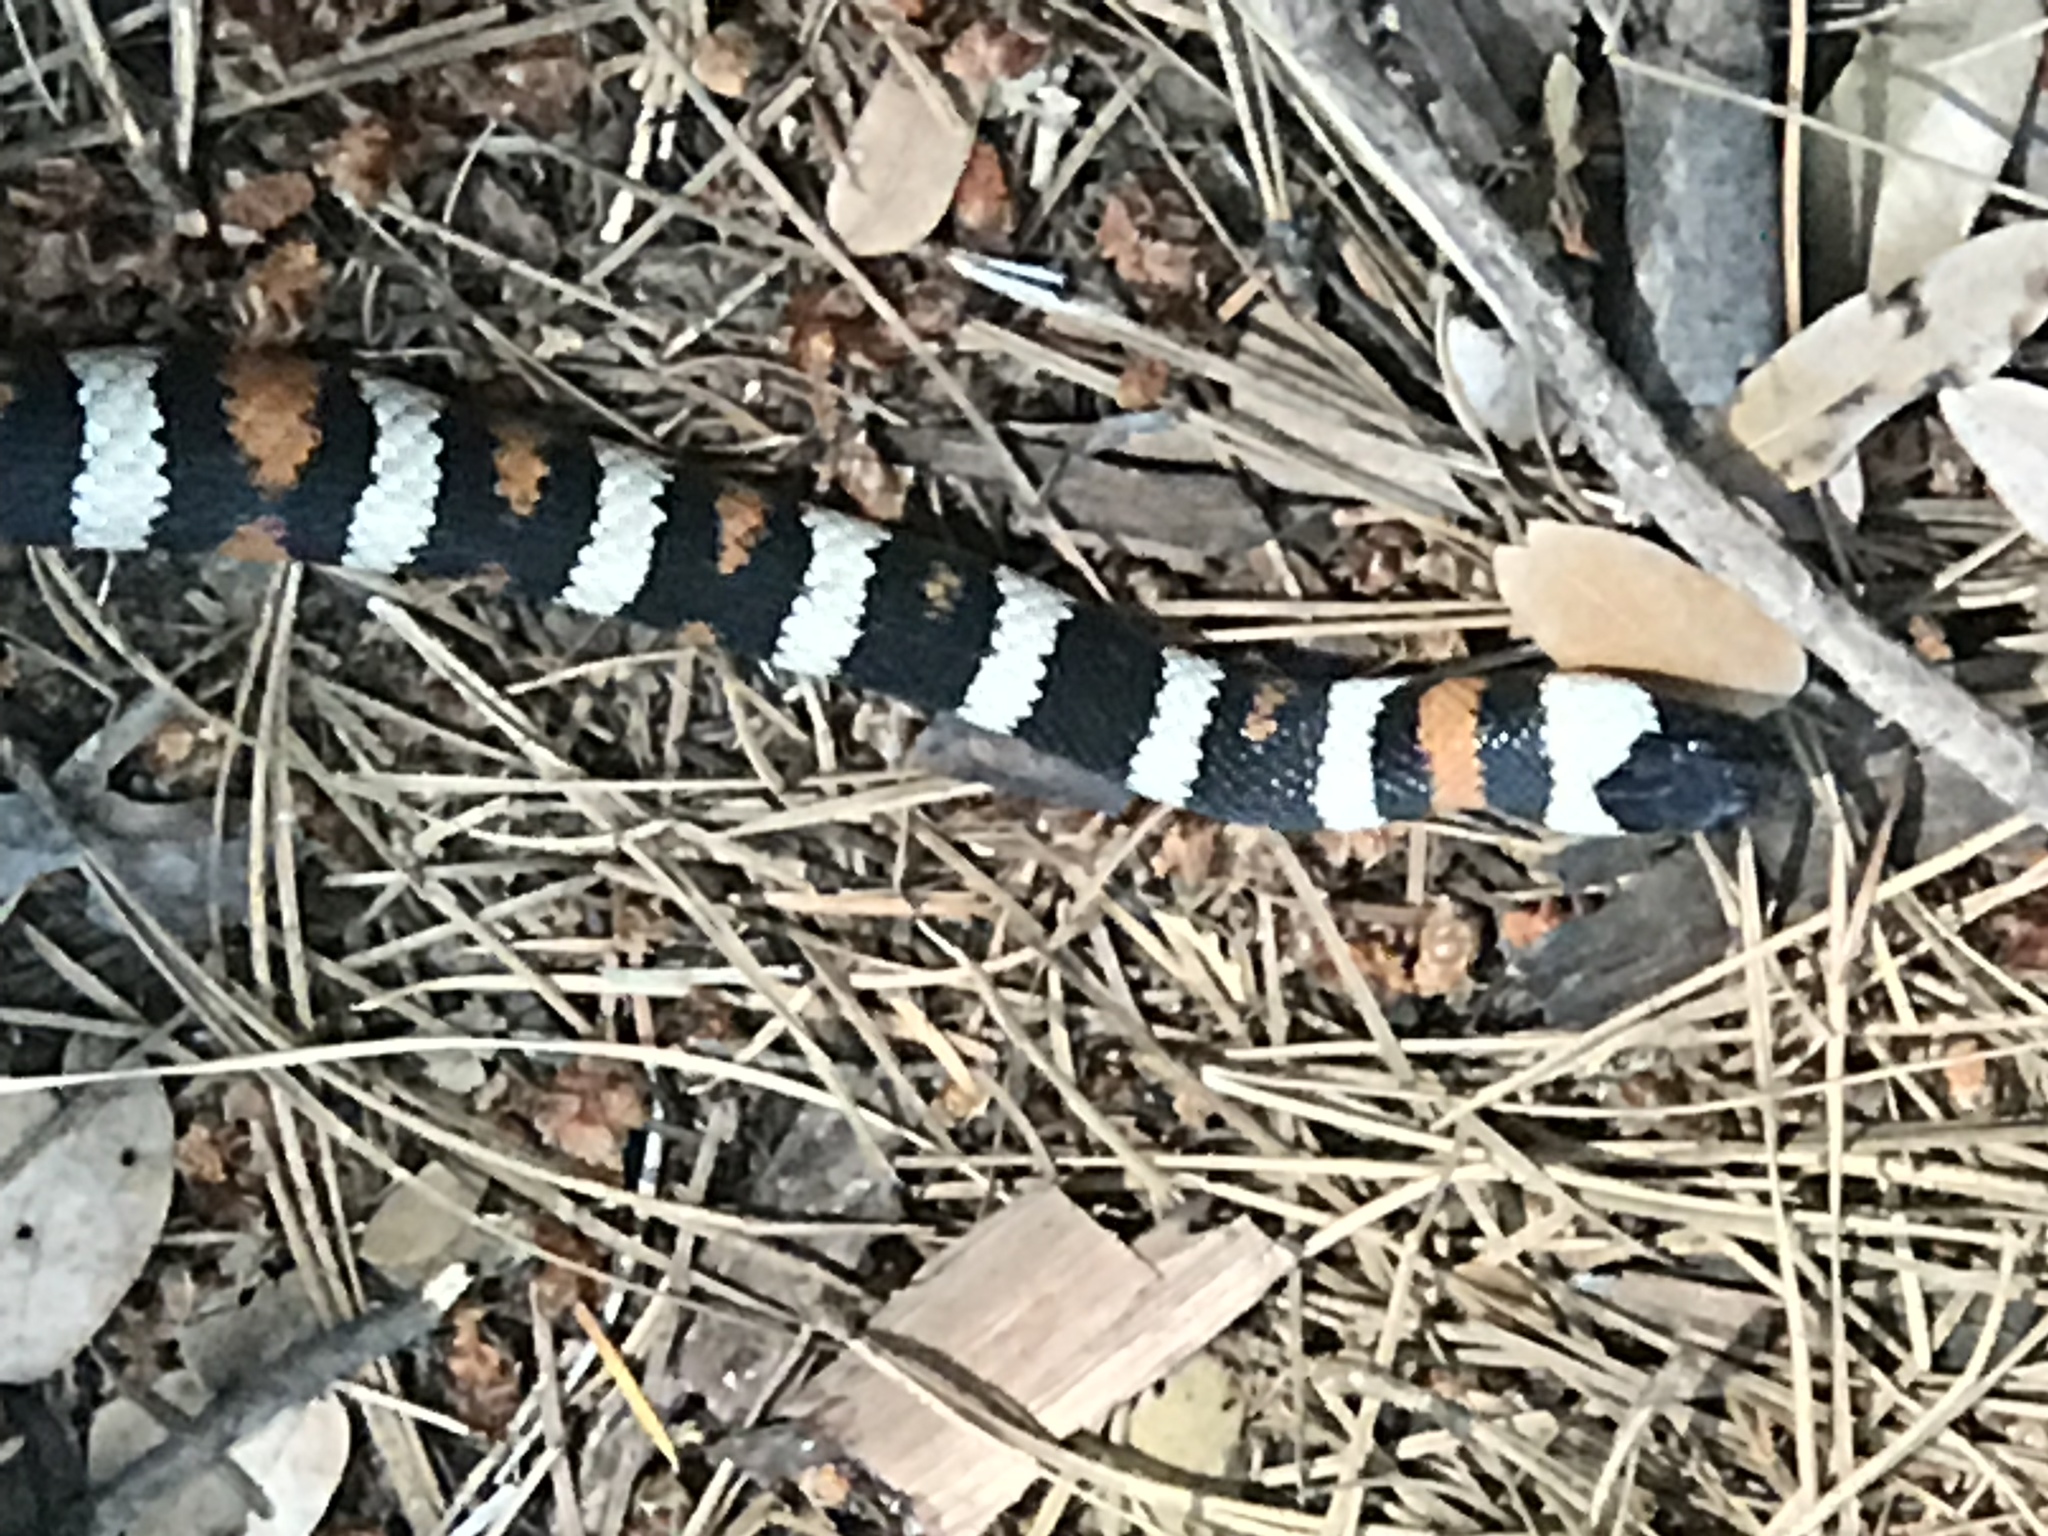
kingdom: Animalia
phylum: Chordata
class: Squamata
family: Colubridae
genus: Lampropeltis
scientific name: Lampropeltis zonata
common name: California mountain kingsnake
